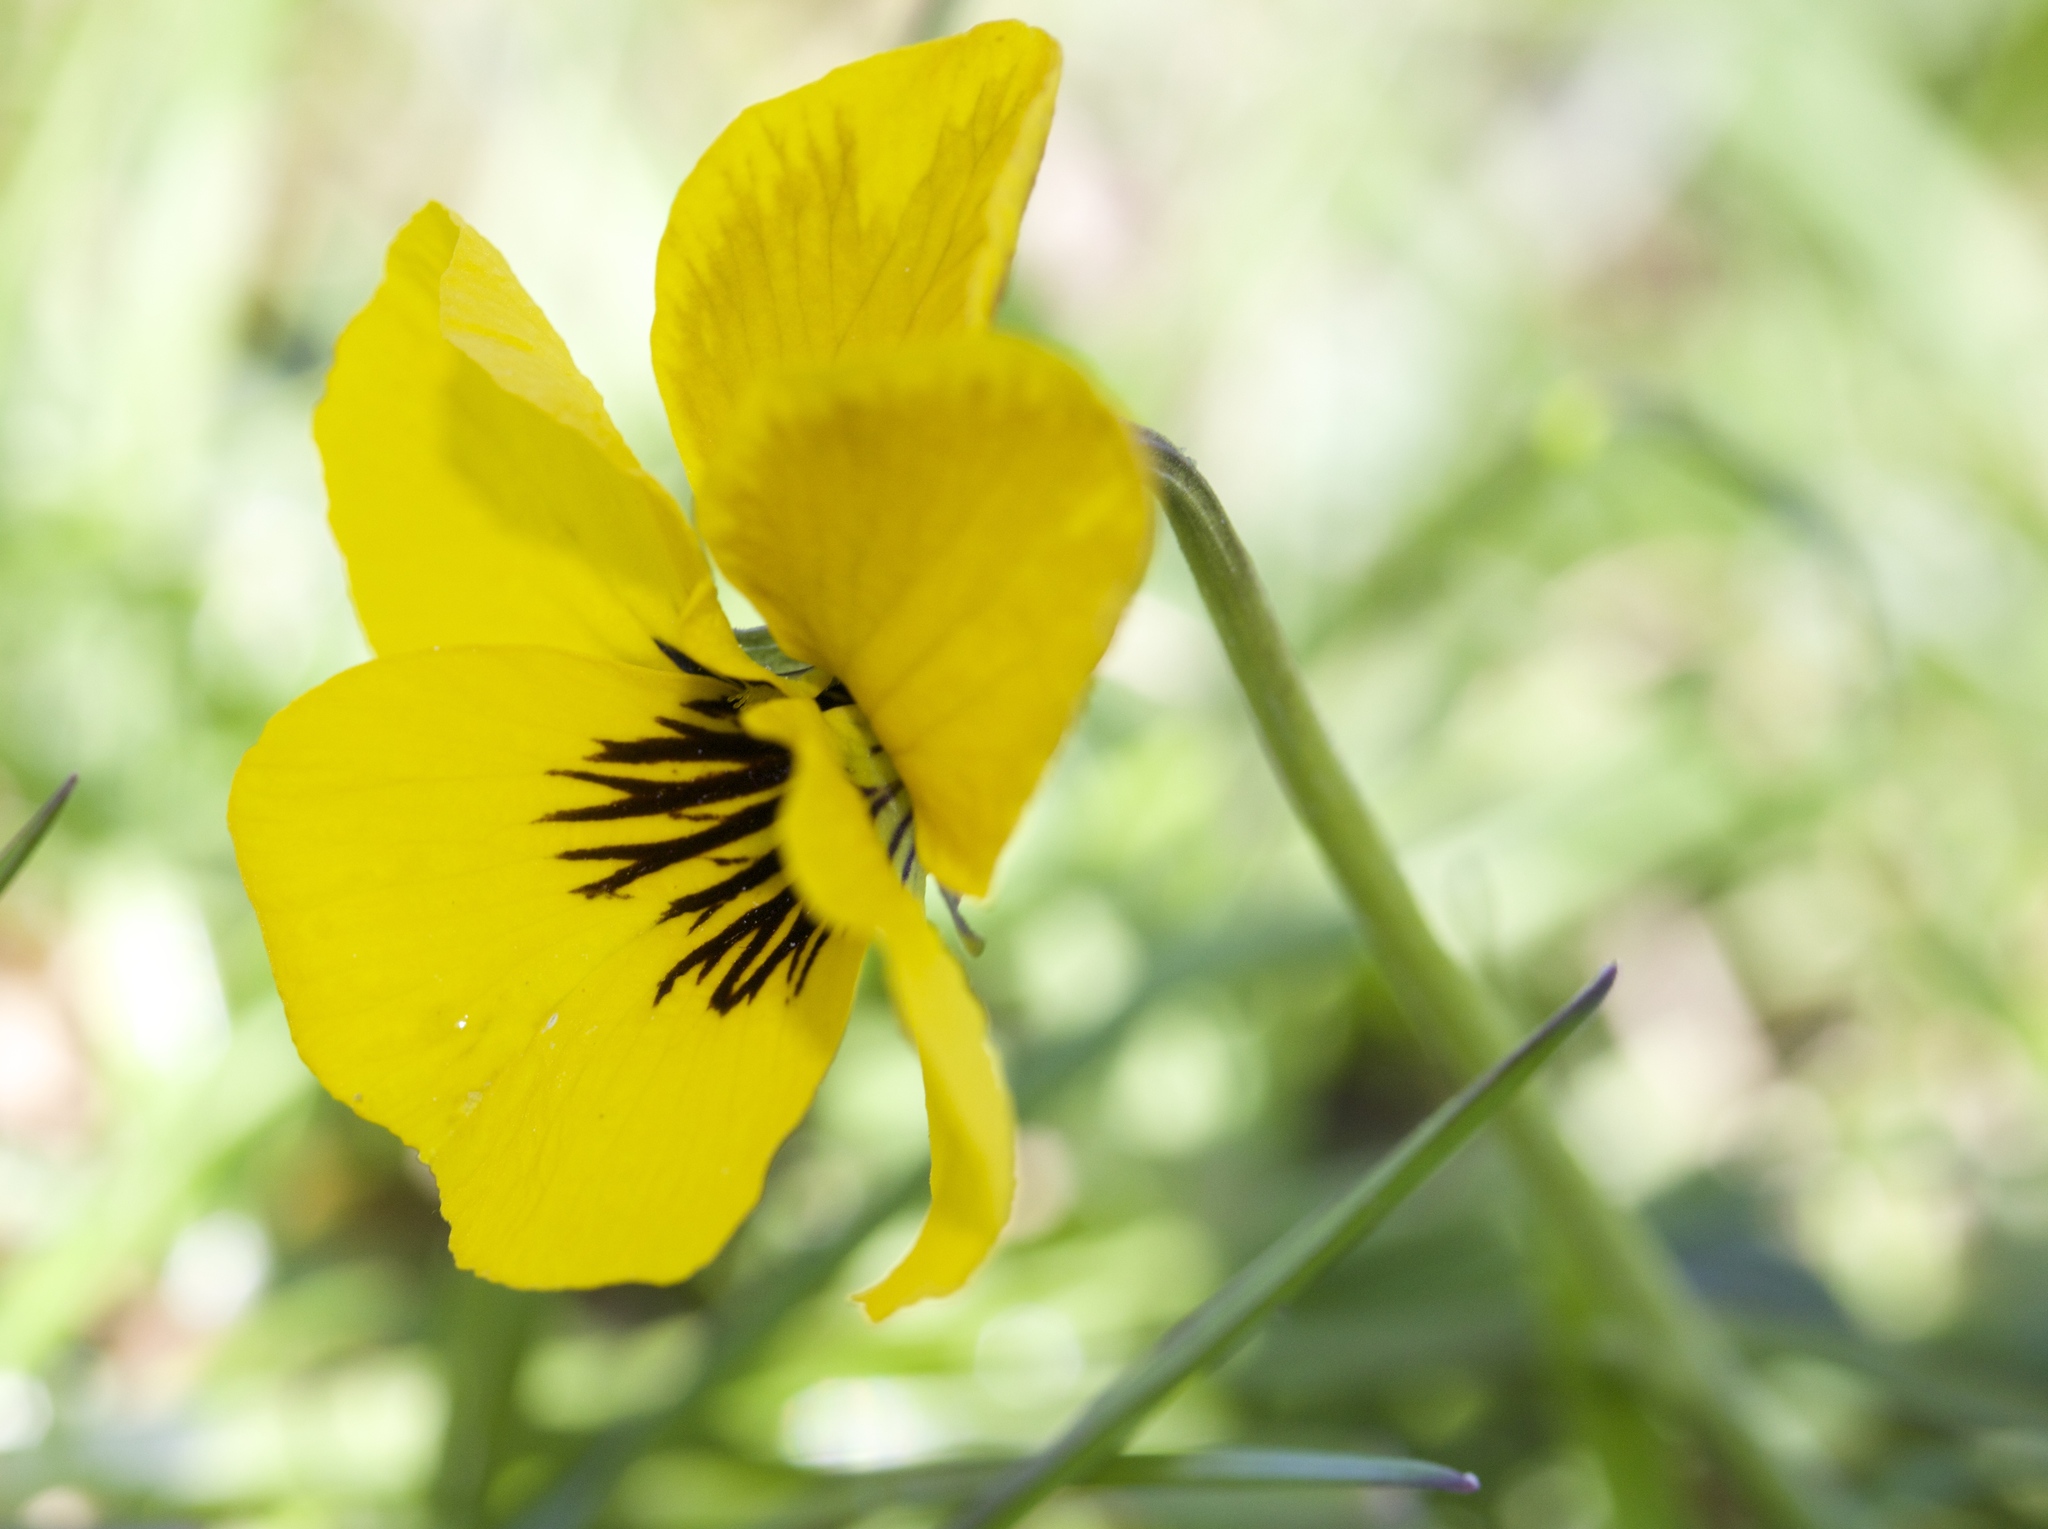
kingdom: Plantae
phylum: Tracheophyta
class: Magnoliopsida
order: Malpighiales
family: Violaceae
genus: Viola
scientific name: Viola pedunculata
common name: California golden violet
